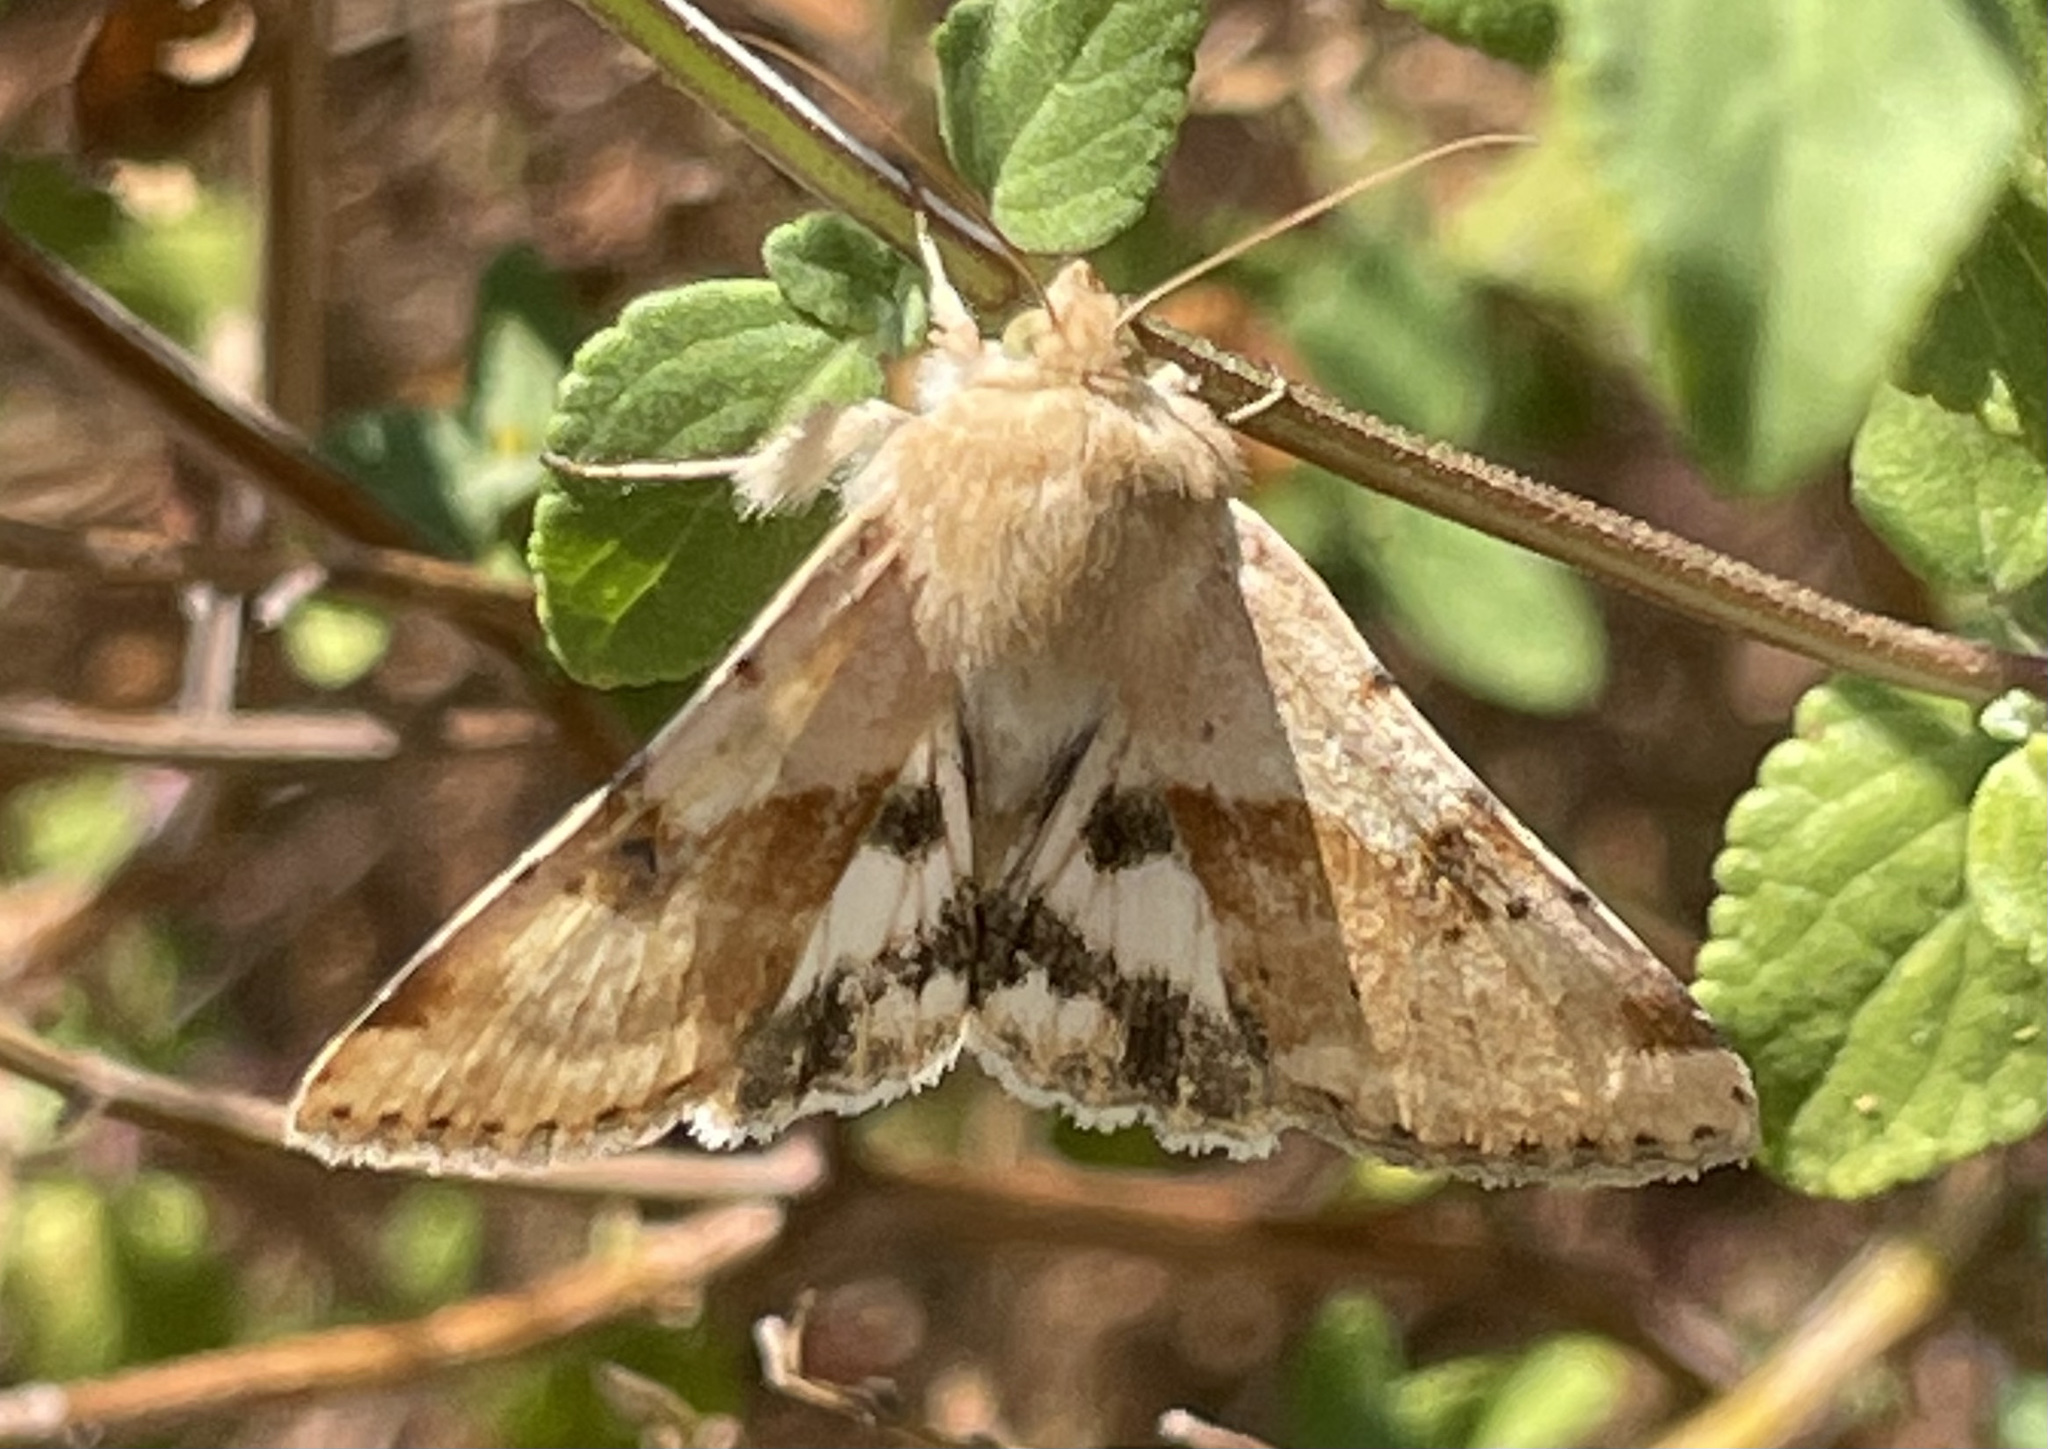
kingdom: Animalia
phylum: Arthropoda
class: Insecta
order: Lepidoptera
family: Noctuidae
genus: Heliothis
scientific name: Heliothis phloxiphaga
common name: Darker spotted straw moth
